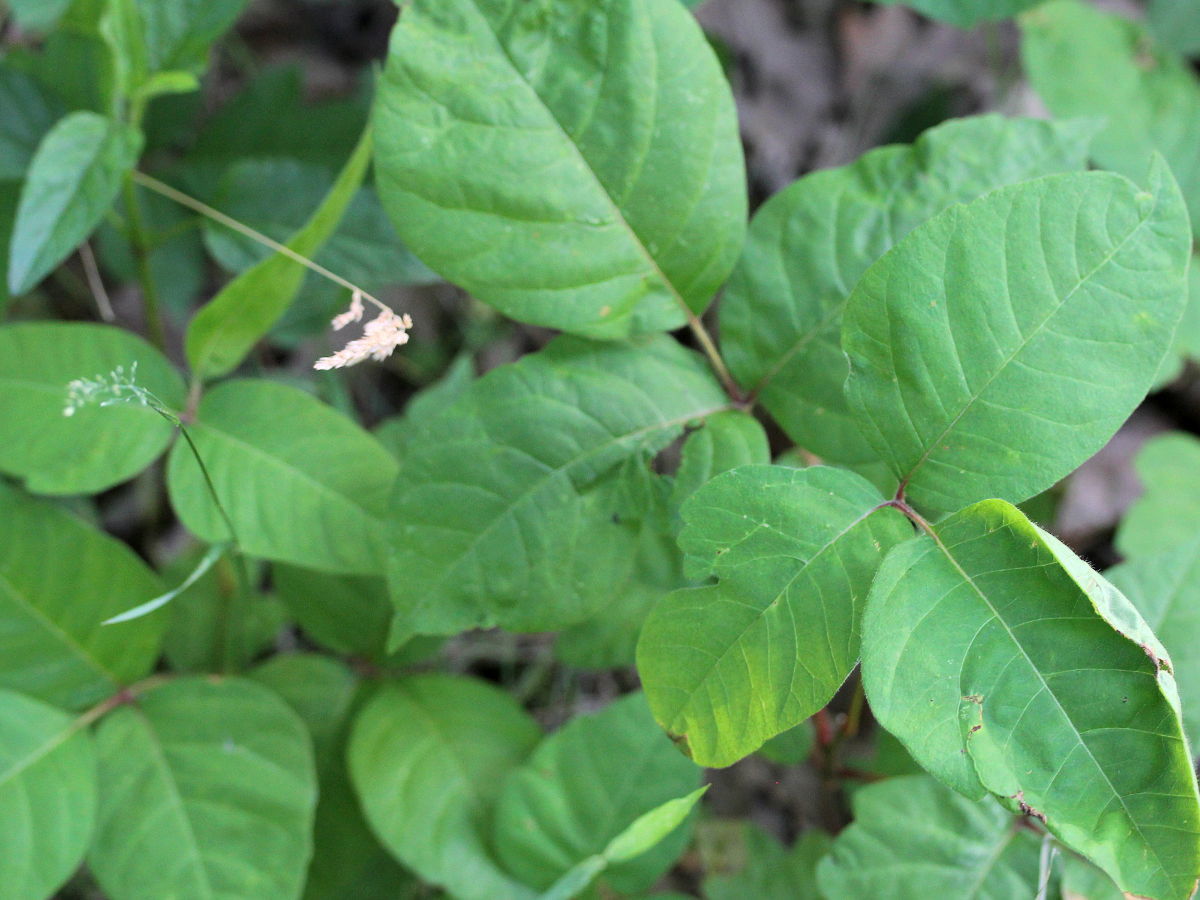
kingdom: Plantae
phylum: Tracheophyta
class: Magnoliopsida
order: Sapindales
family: Anacardiaceae
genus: Toxicodendron
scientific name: Toxicodendron radicans
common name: Poison ivy
